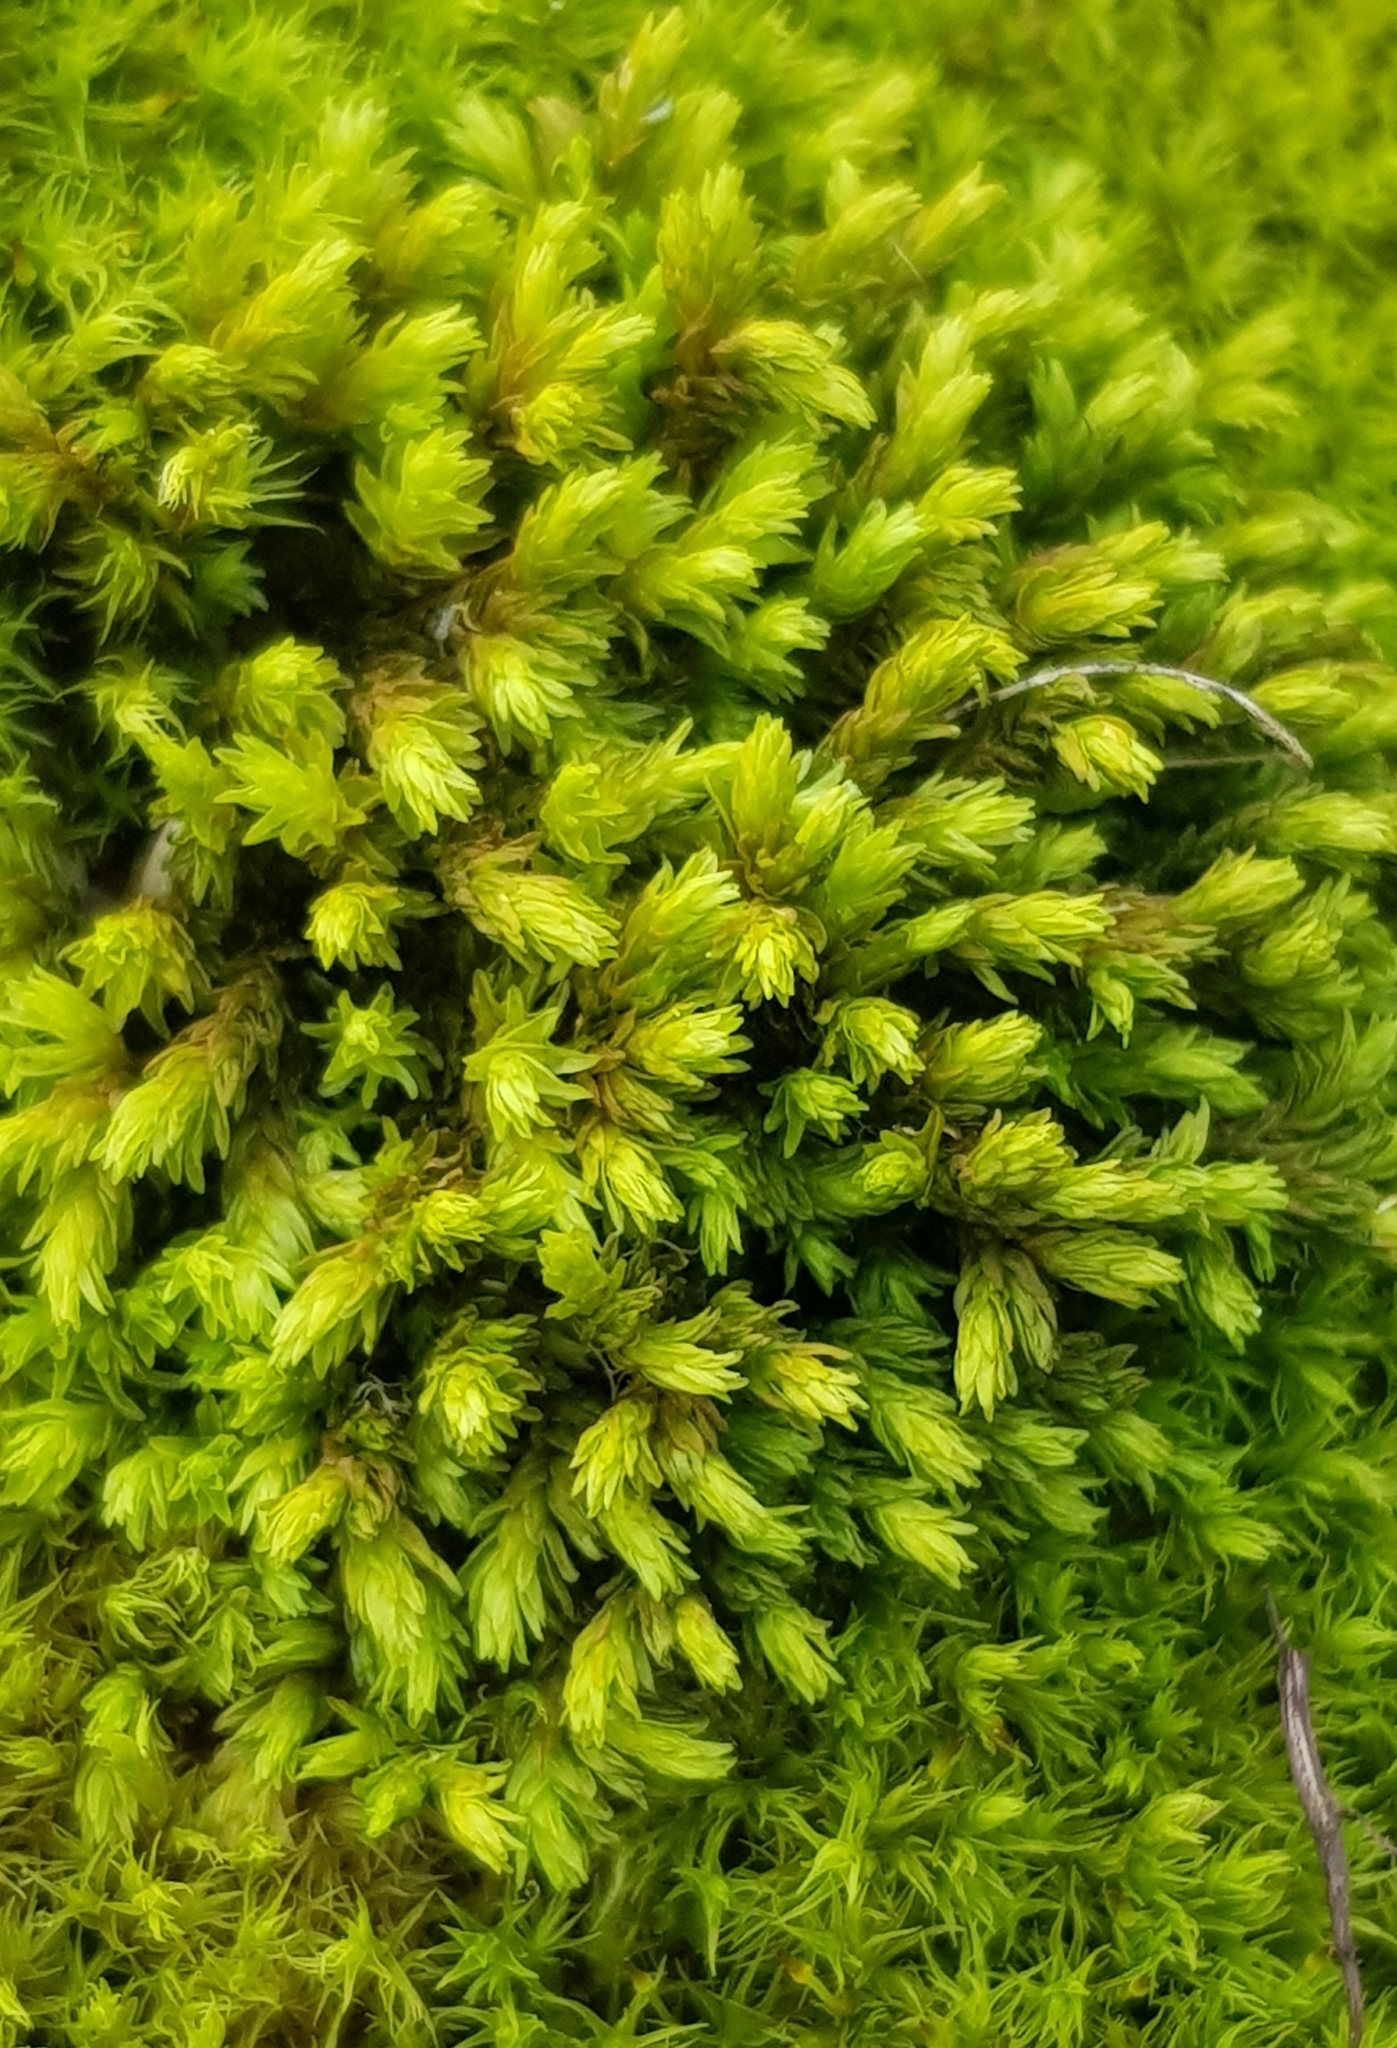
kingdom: Plantae
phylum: Bryophyta
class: Bryopsida
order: Grimmiales
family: Grimmiaceae
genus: Codriophorus
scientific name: Codriophorus acicularis
